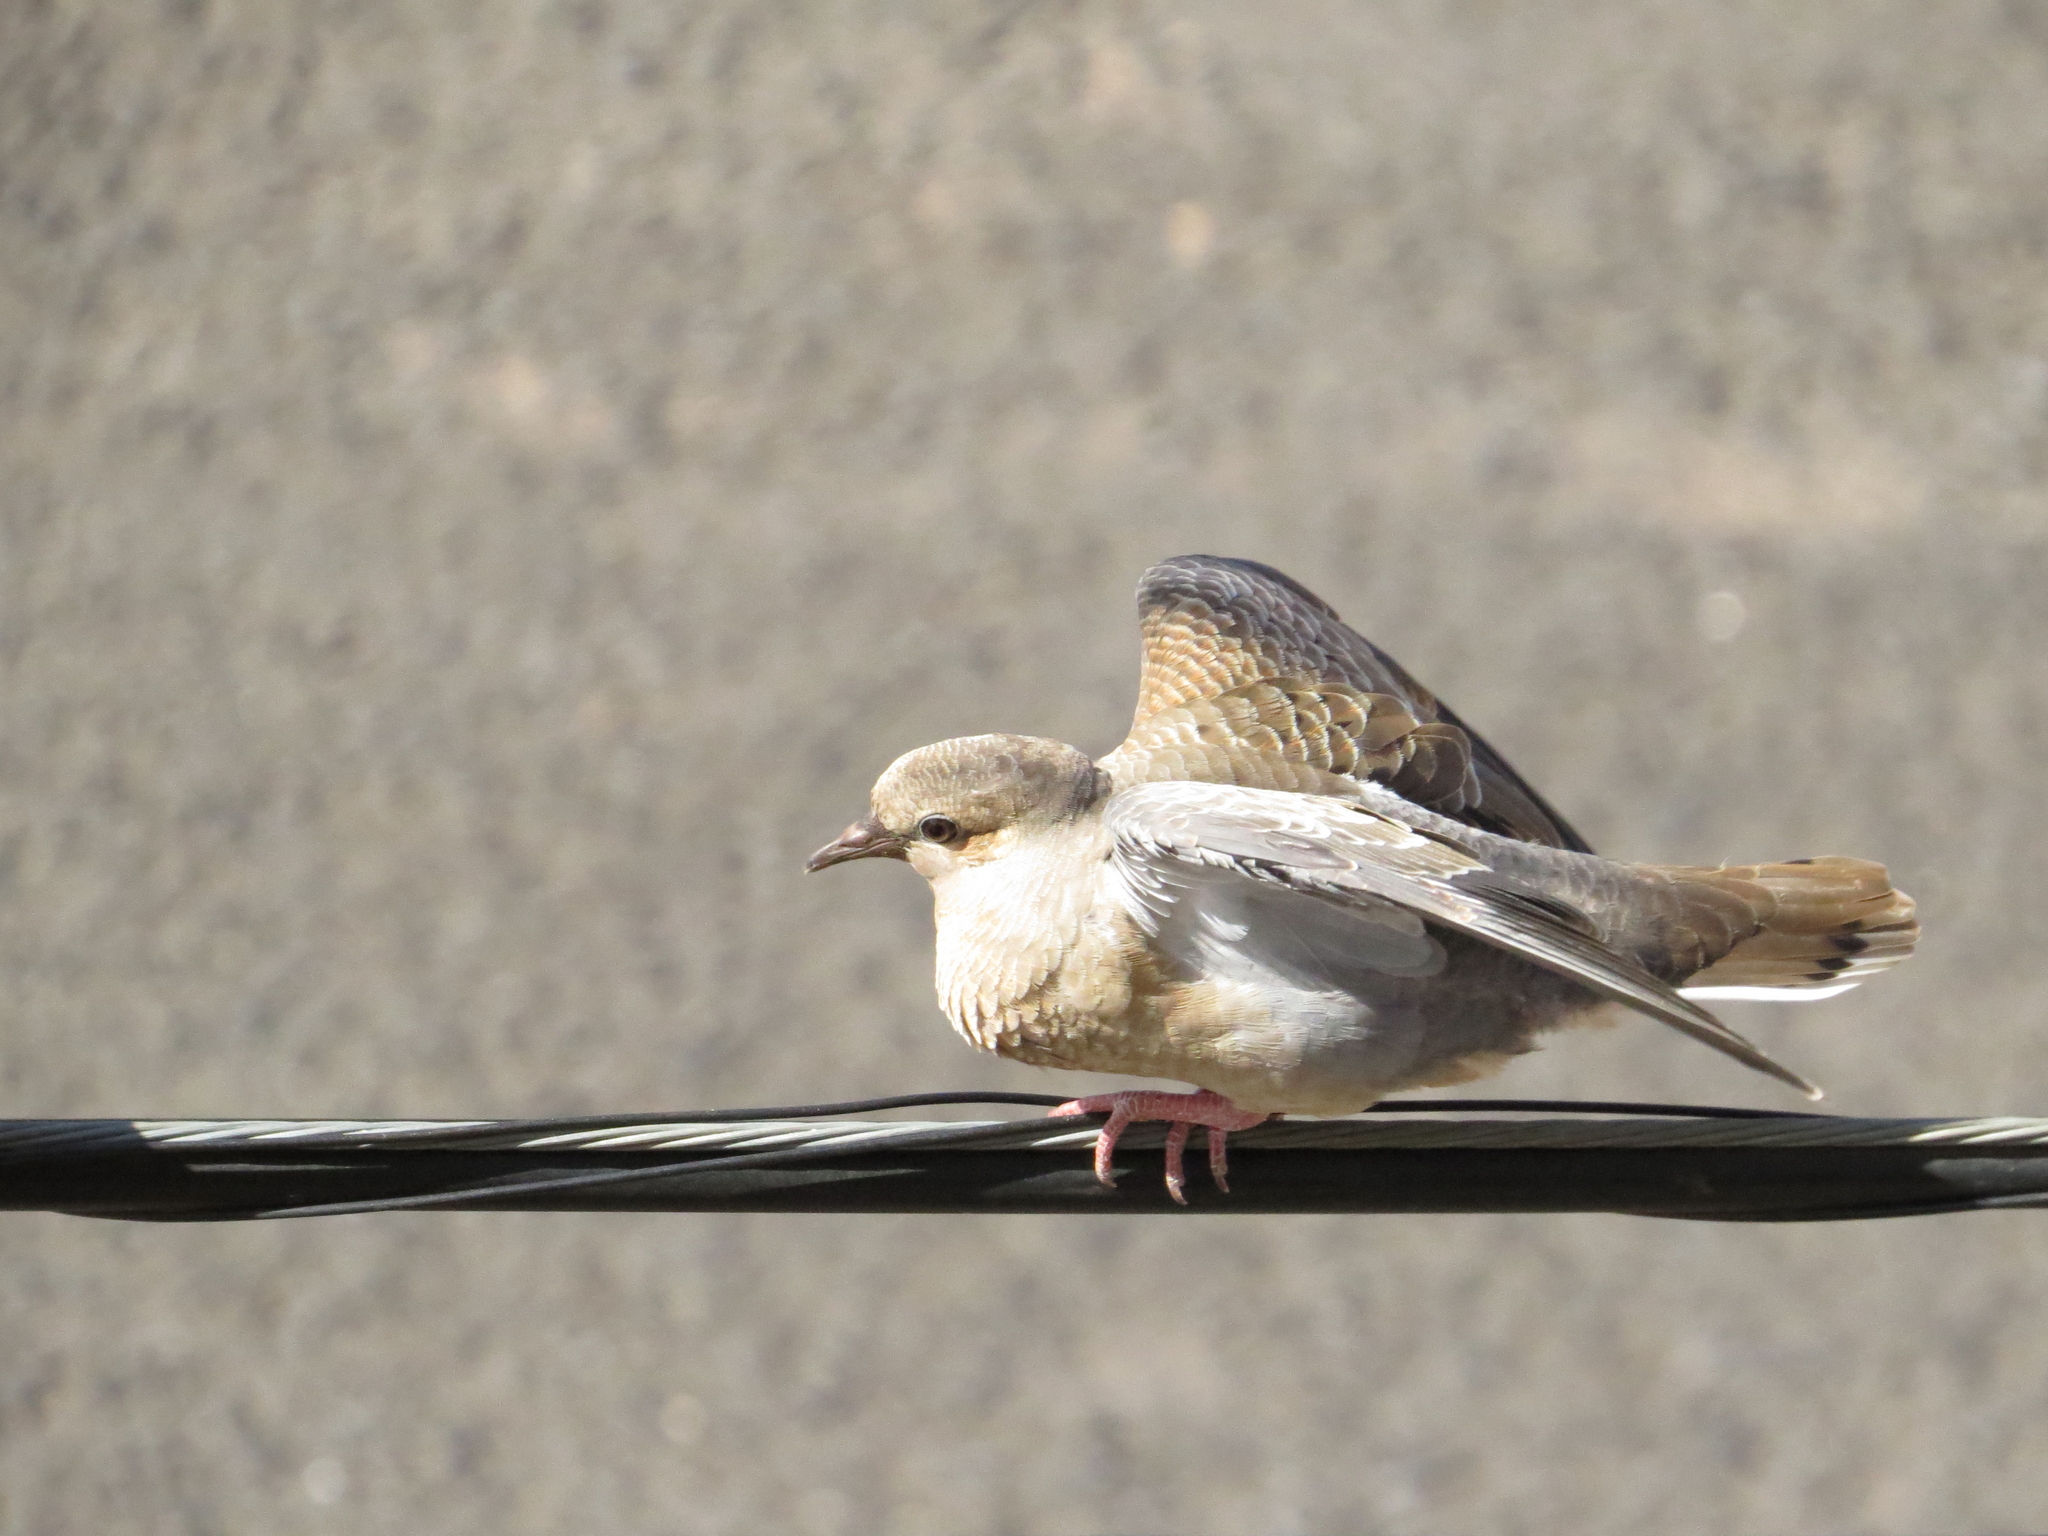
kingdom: Animalia
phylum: Chordata
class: Aves
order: Columbiformes
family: Columbidae
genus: Zenaida
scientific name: Zenaida auriculata
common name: Eared dove
